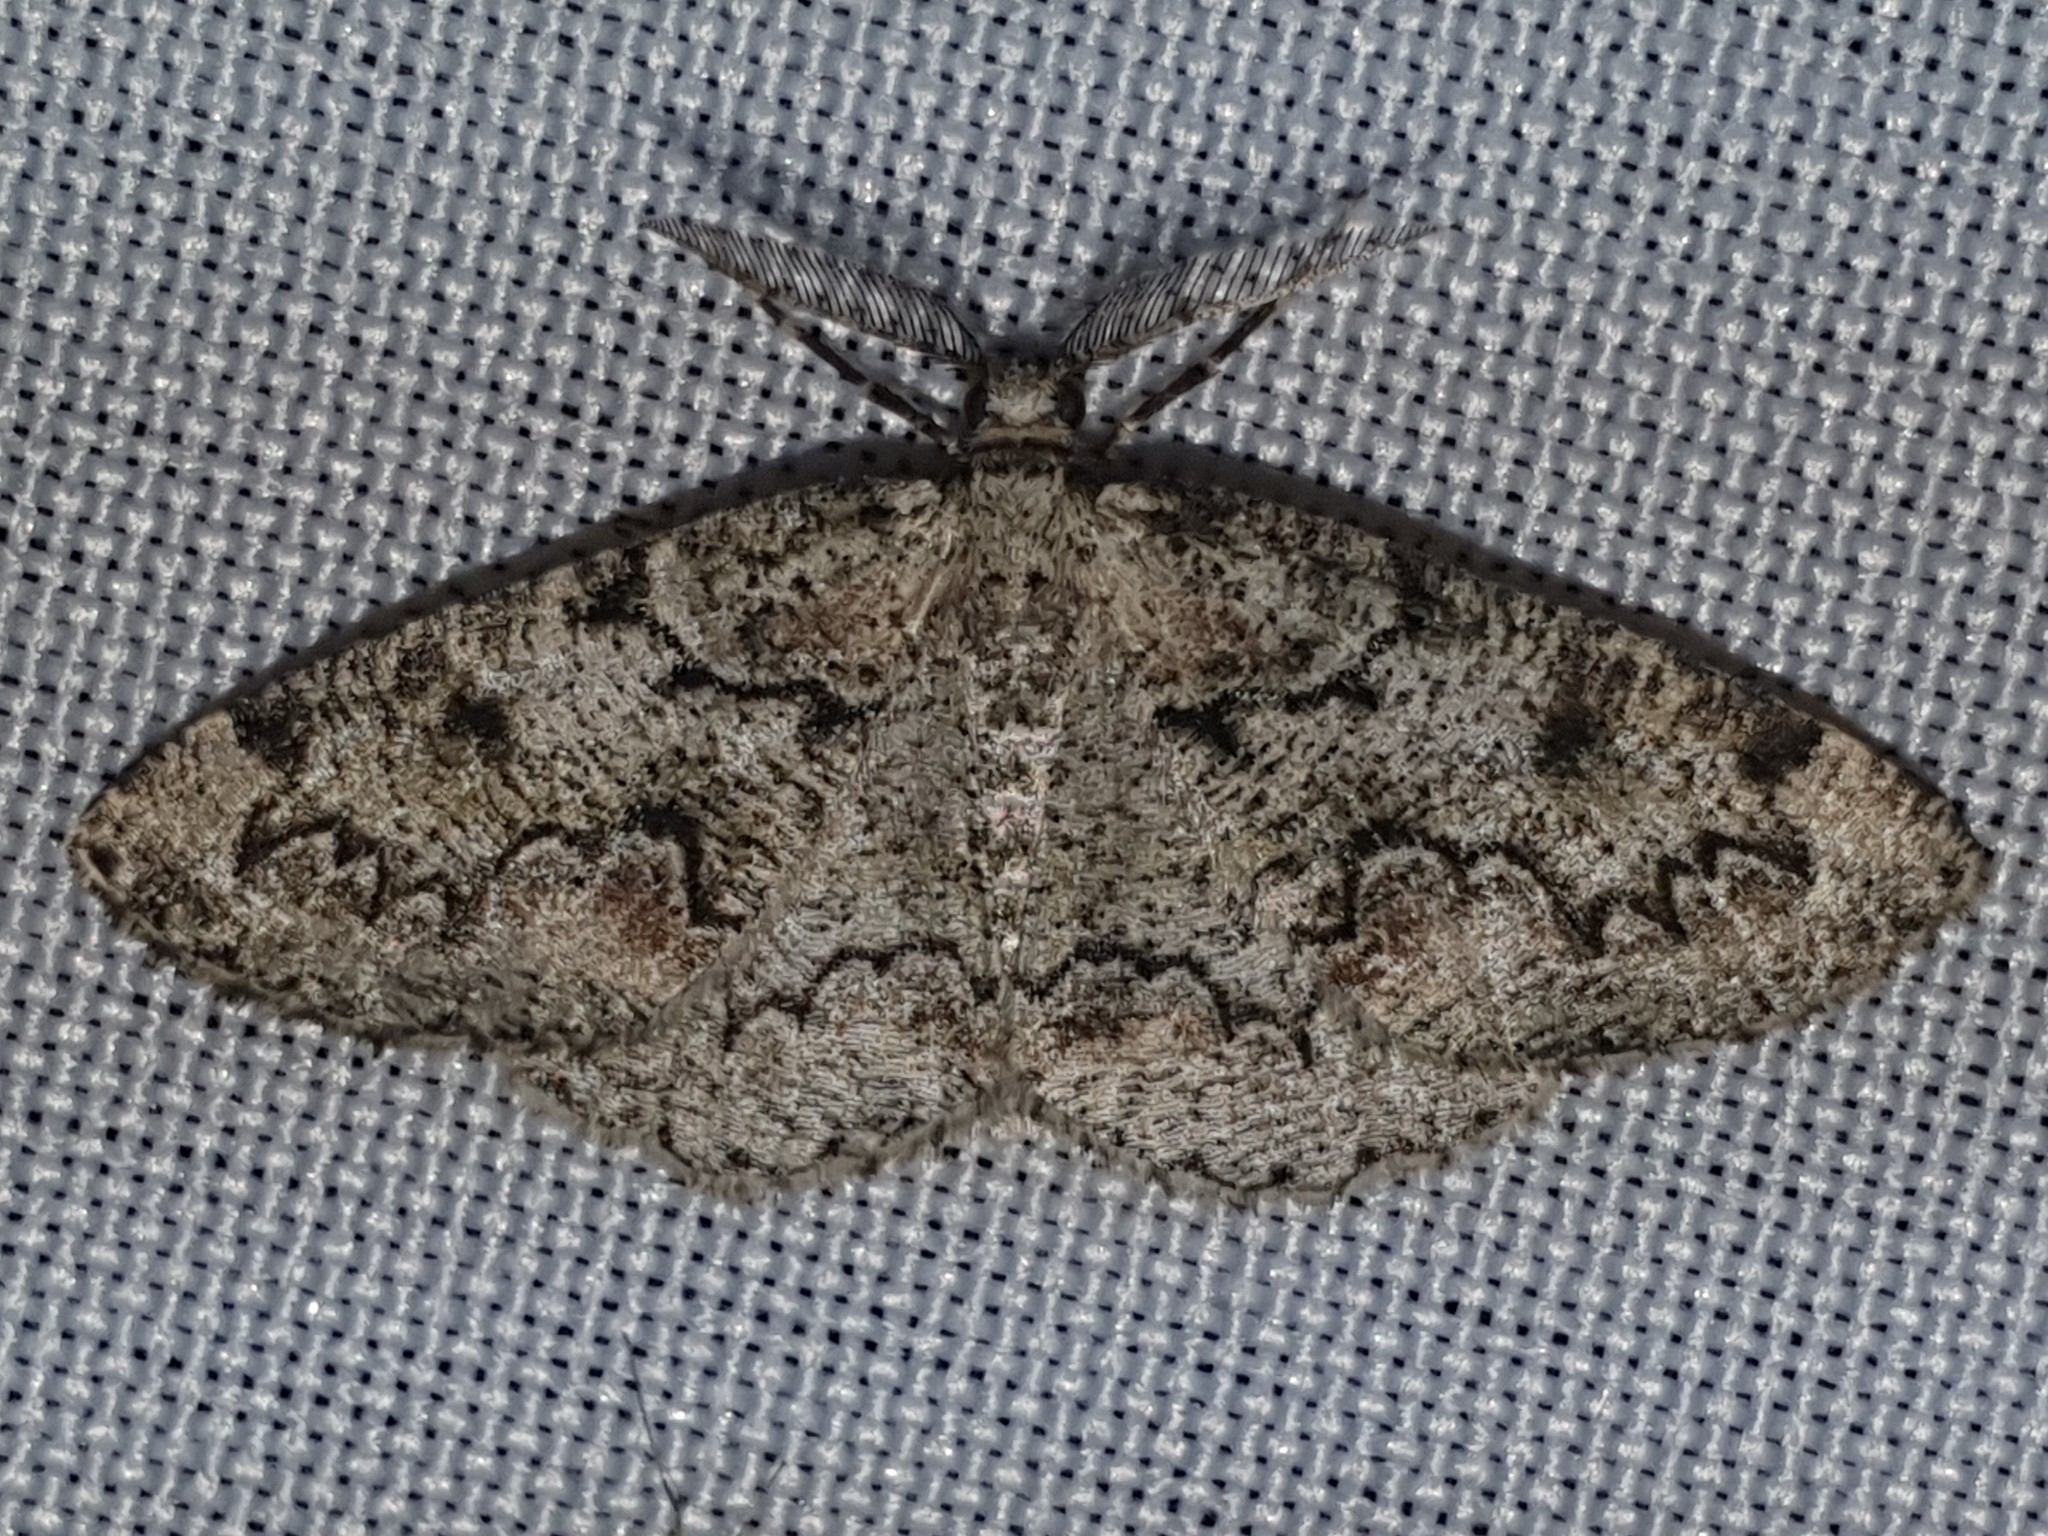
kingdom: Animalia
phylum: Arthropoda
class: Insecta
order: Lepidoptera
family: Geometridae
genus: Cleorodes
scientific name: Cleorodes lichenaria
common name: Brussels lace
